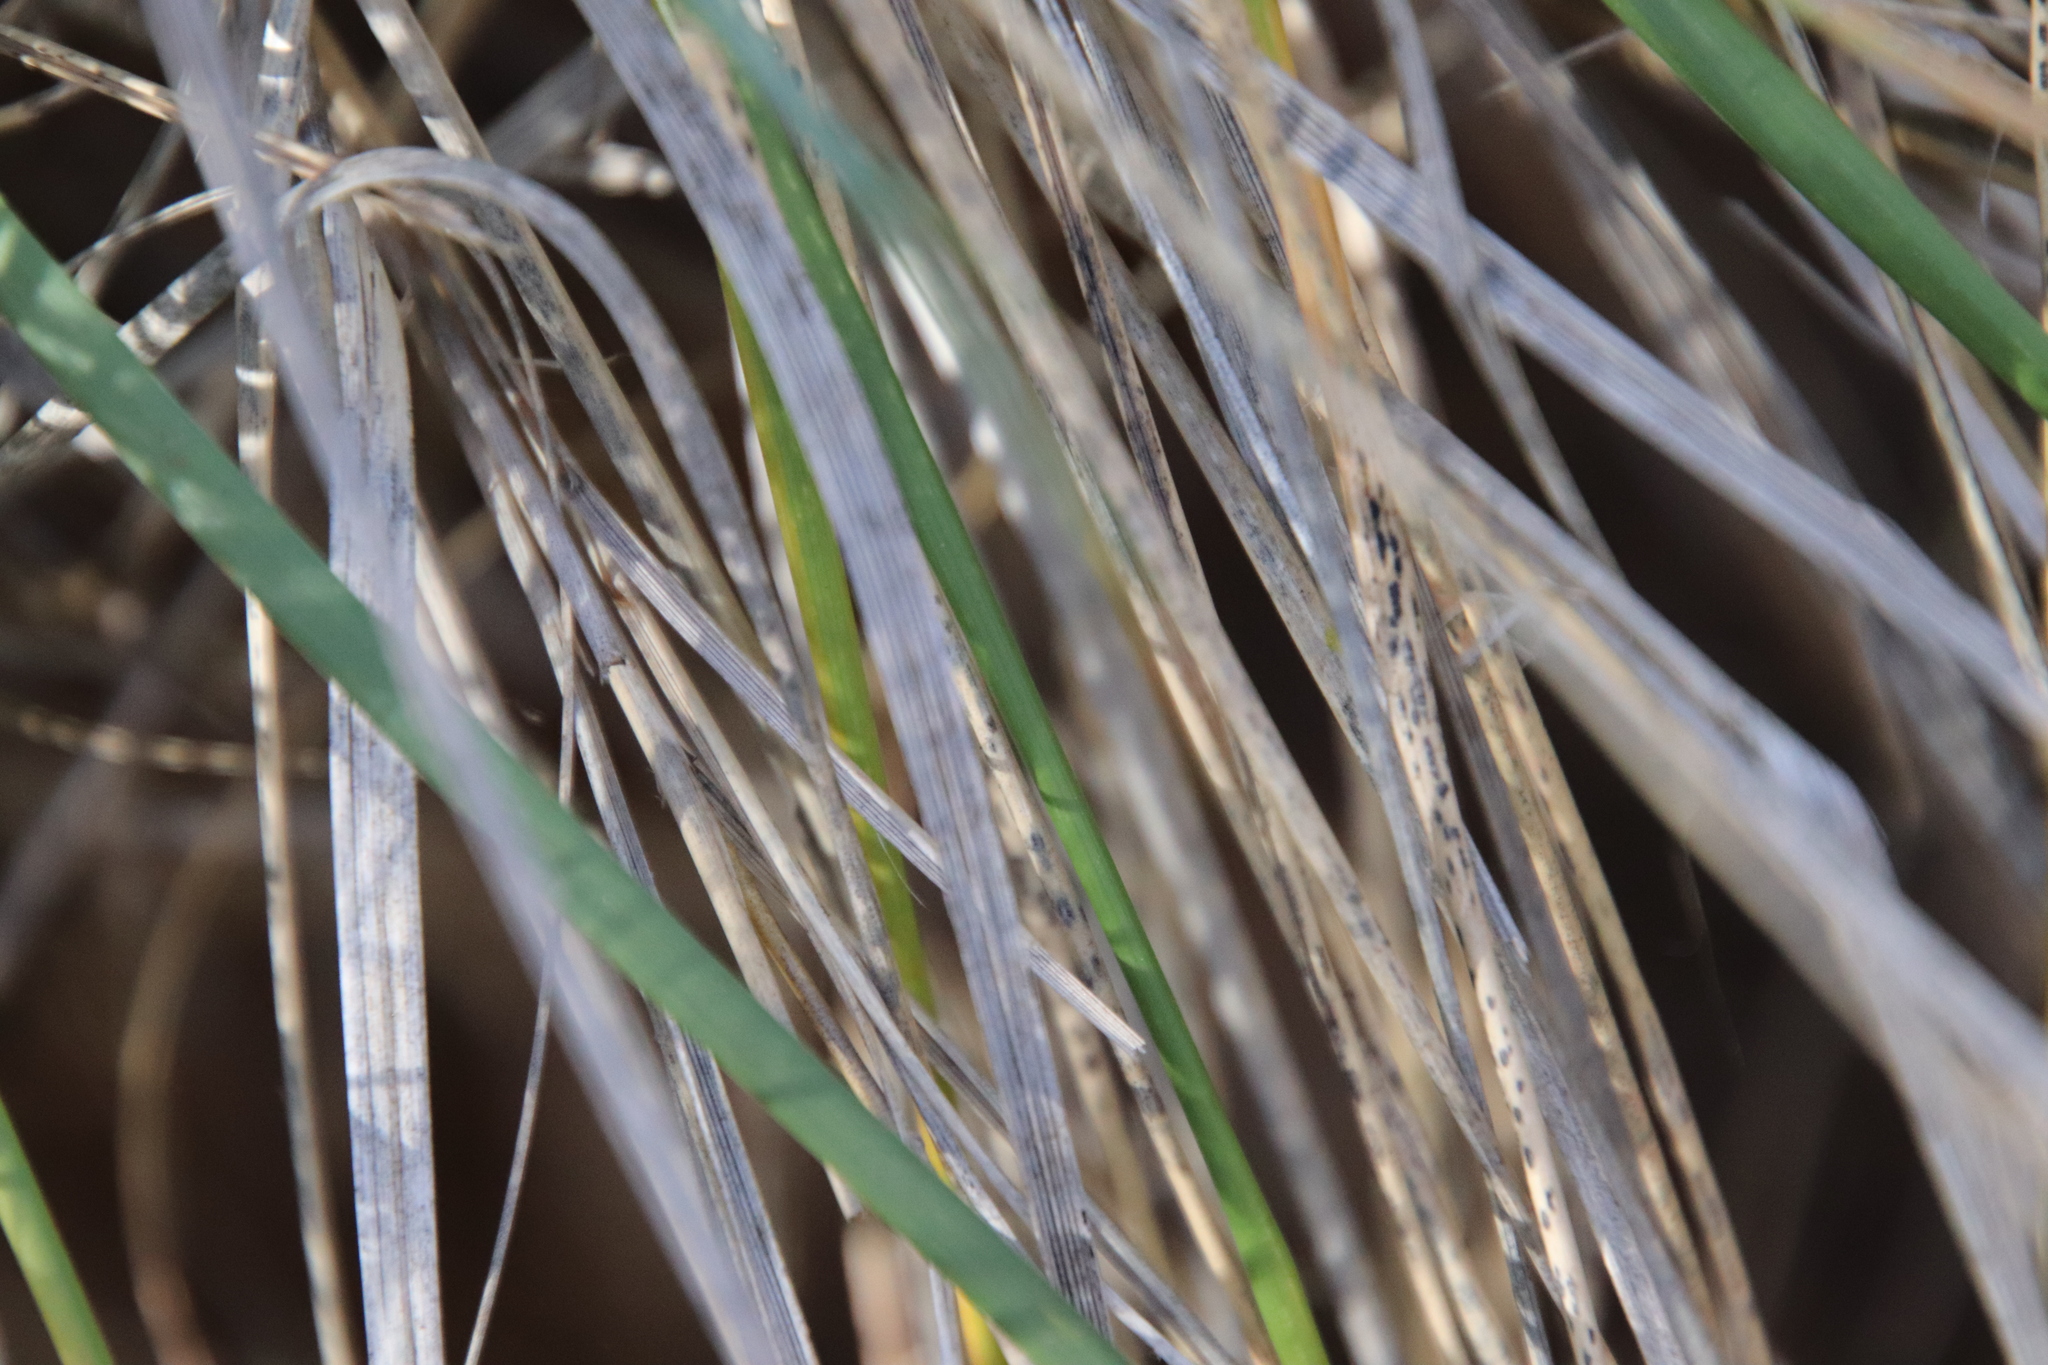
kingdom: Plantae
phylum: Tracheophyta
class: Liliopsida
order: Poales
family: Poaceae
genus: Muhlenbergia
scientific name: Muhlenbergia rigens
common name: Deer grass
